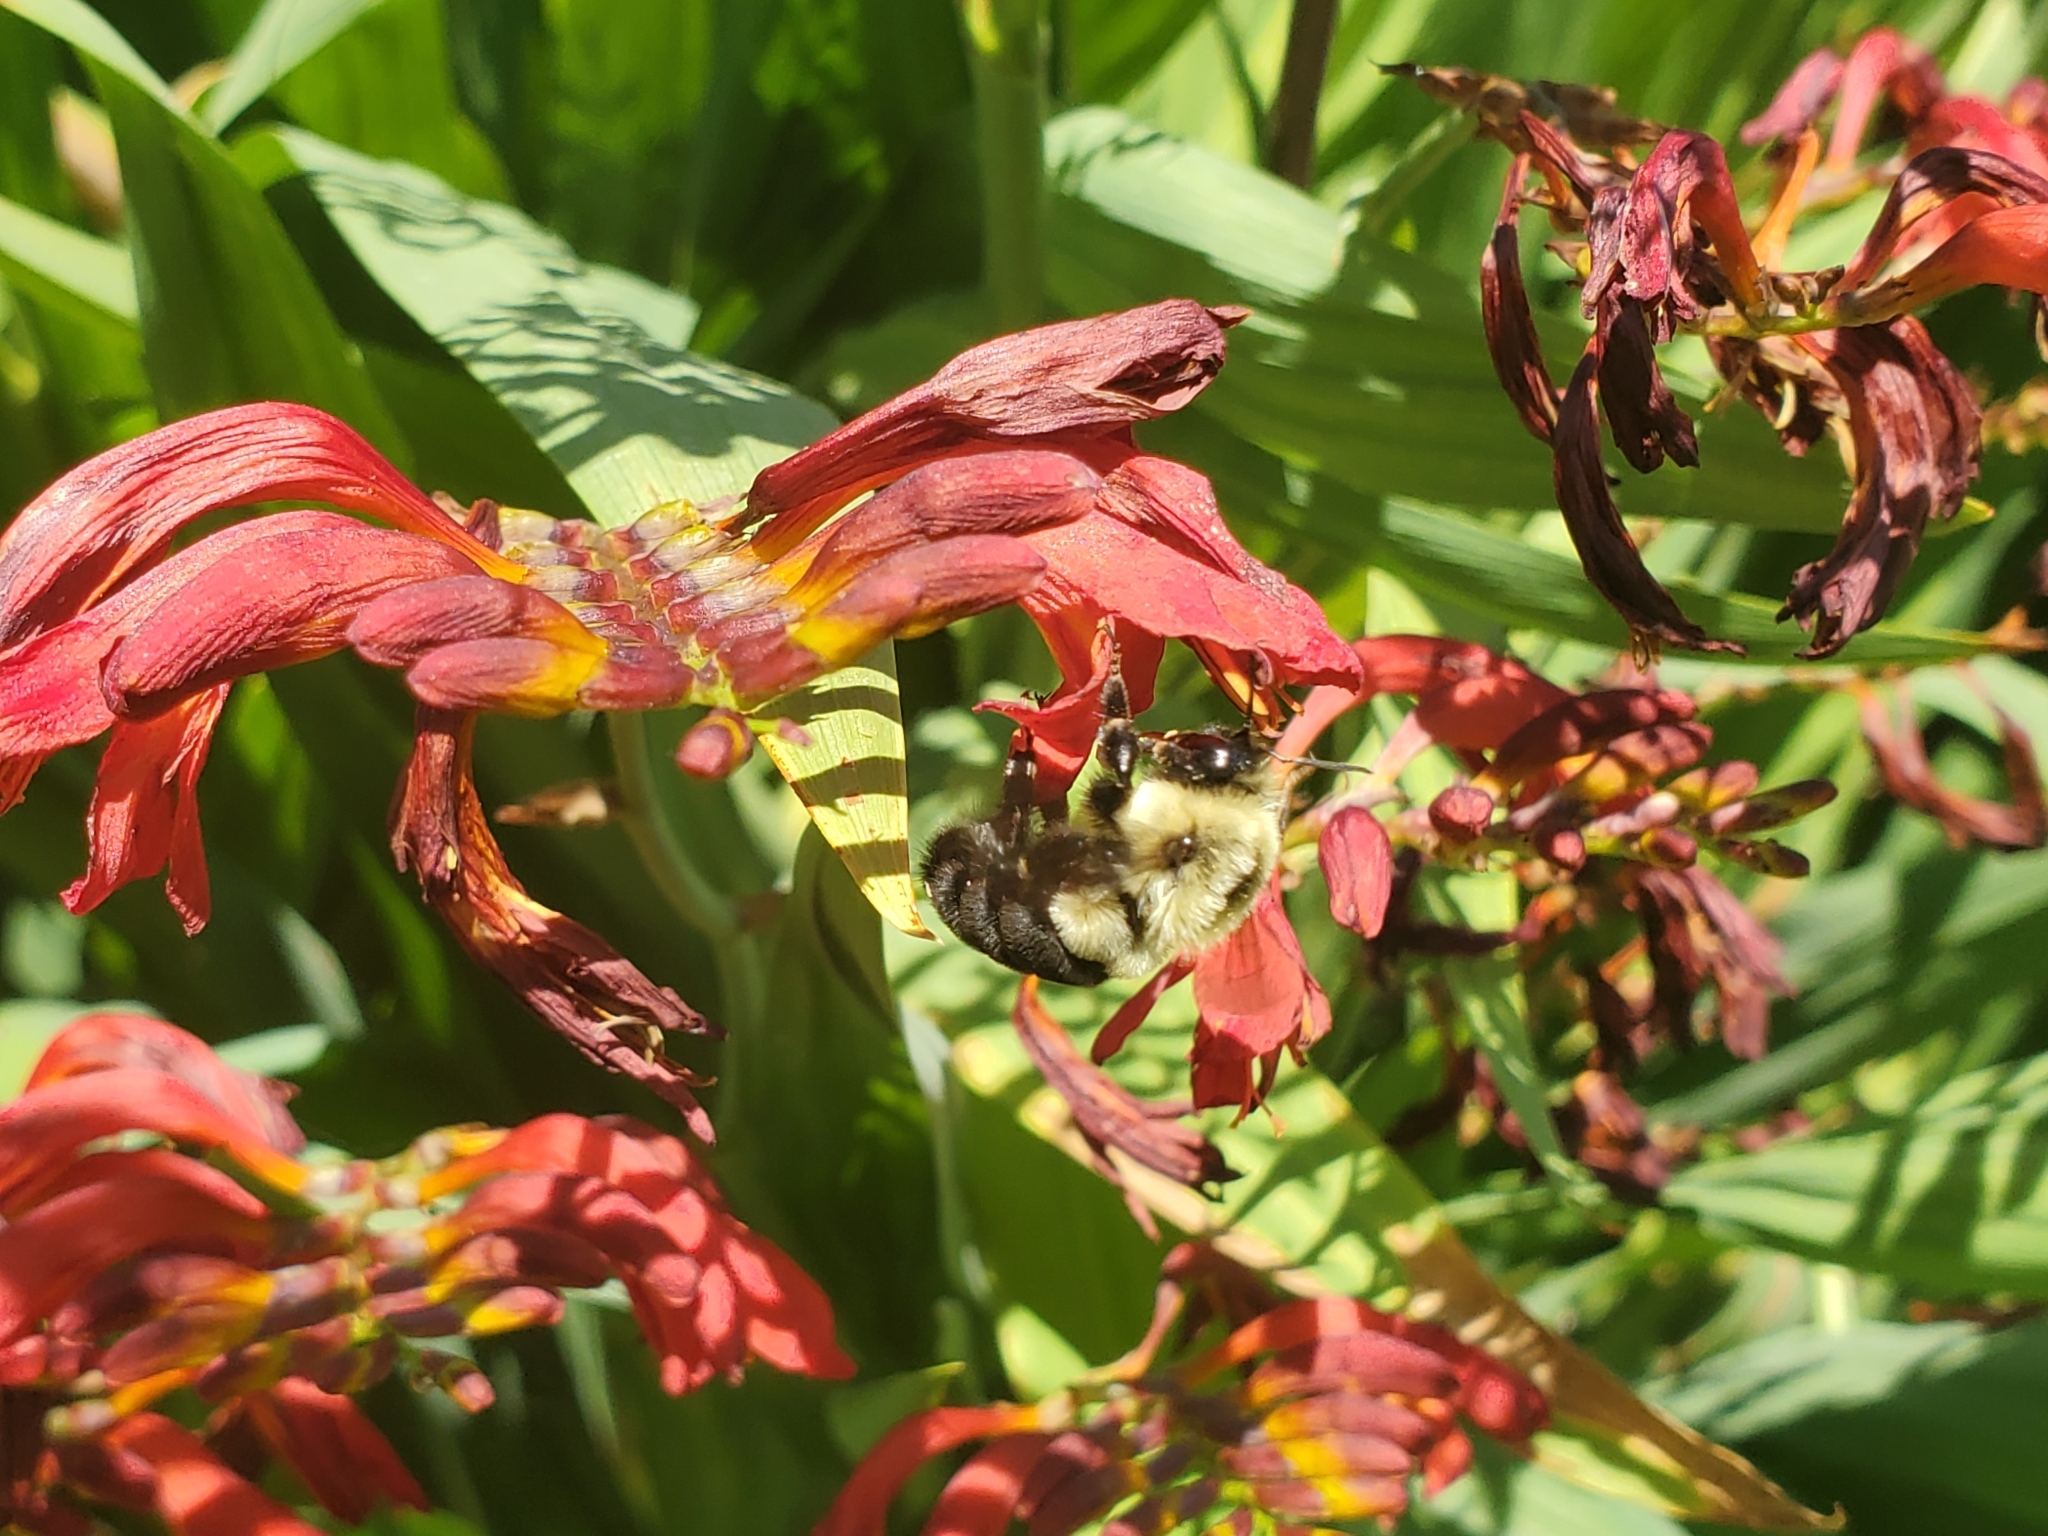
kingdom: Animalia
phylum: Arthropoda
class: Insecta
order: Hymenoptera
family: Apidae
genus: Bombus
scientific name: Bombus impatiens
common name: Common eastern bumble bee
